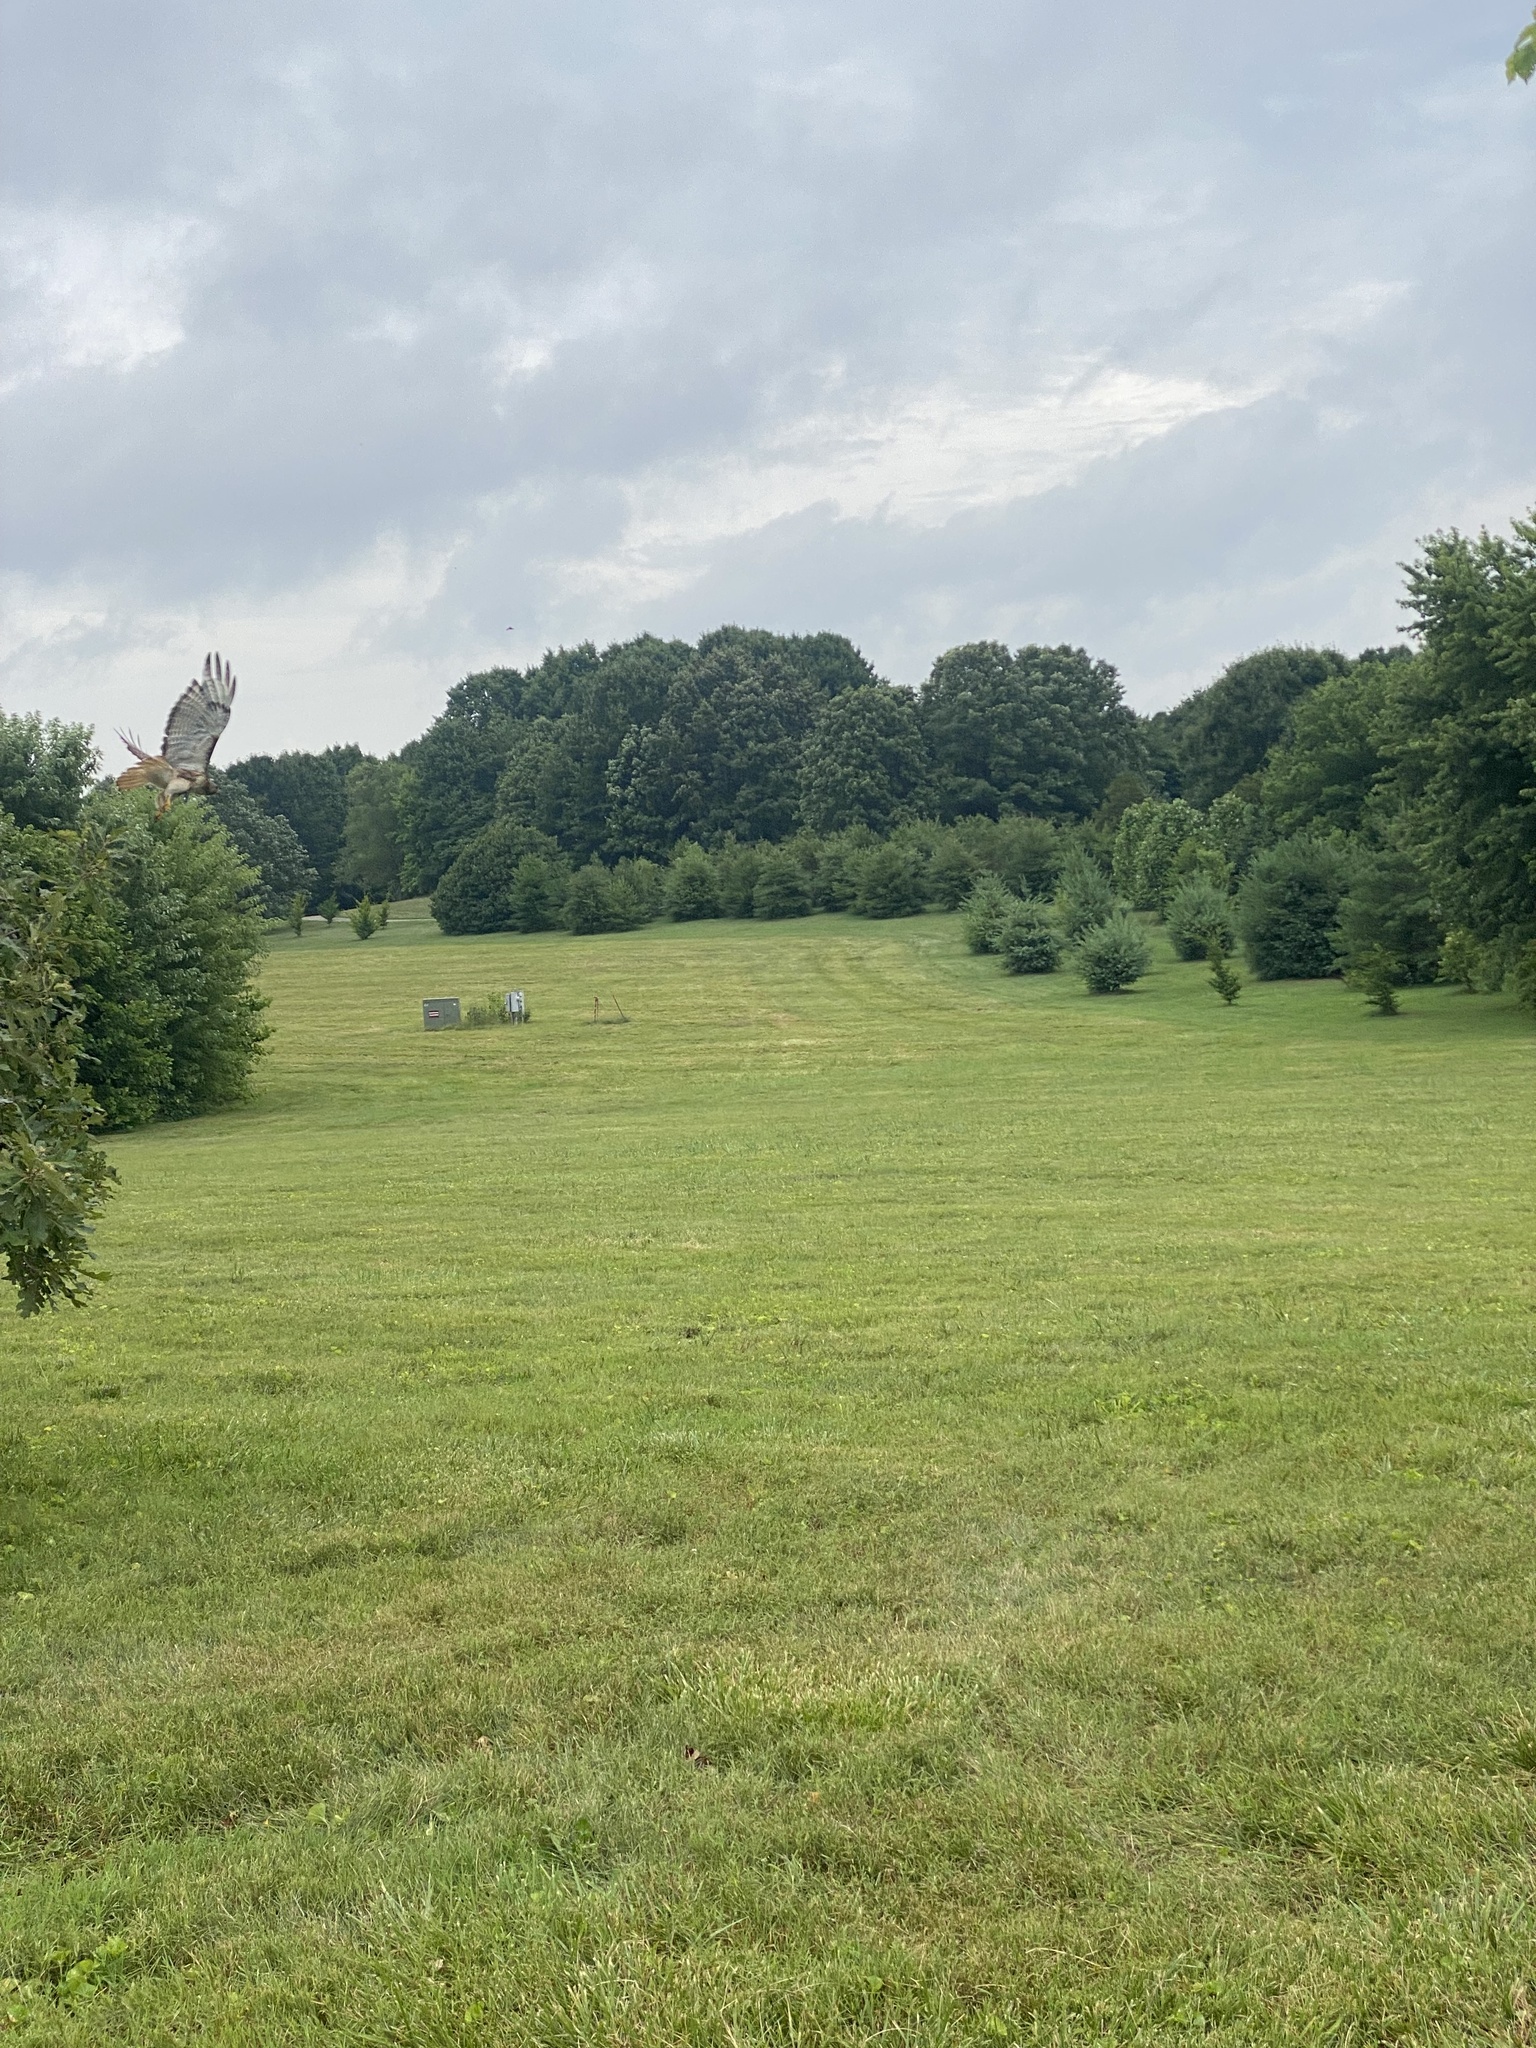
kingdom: Animalia
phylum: Chordata
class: Aves
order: Accipitriformes
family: Accipitridae
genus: Buteo
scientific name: Buteo jamaicensis
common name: Red-tailed hawk
